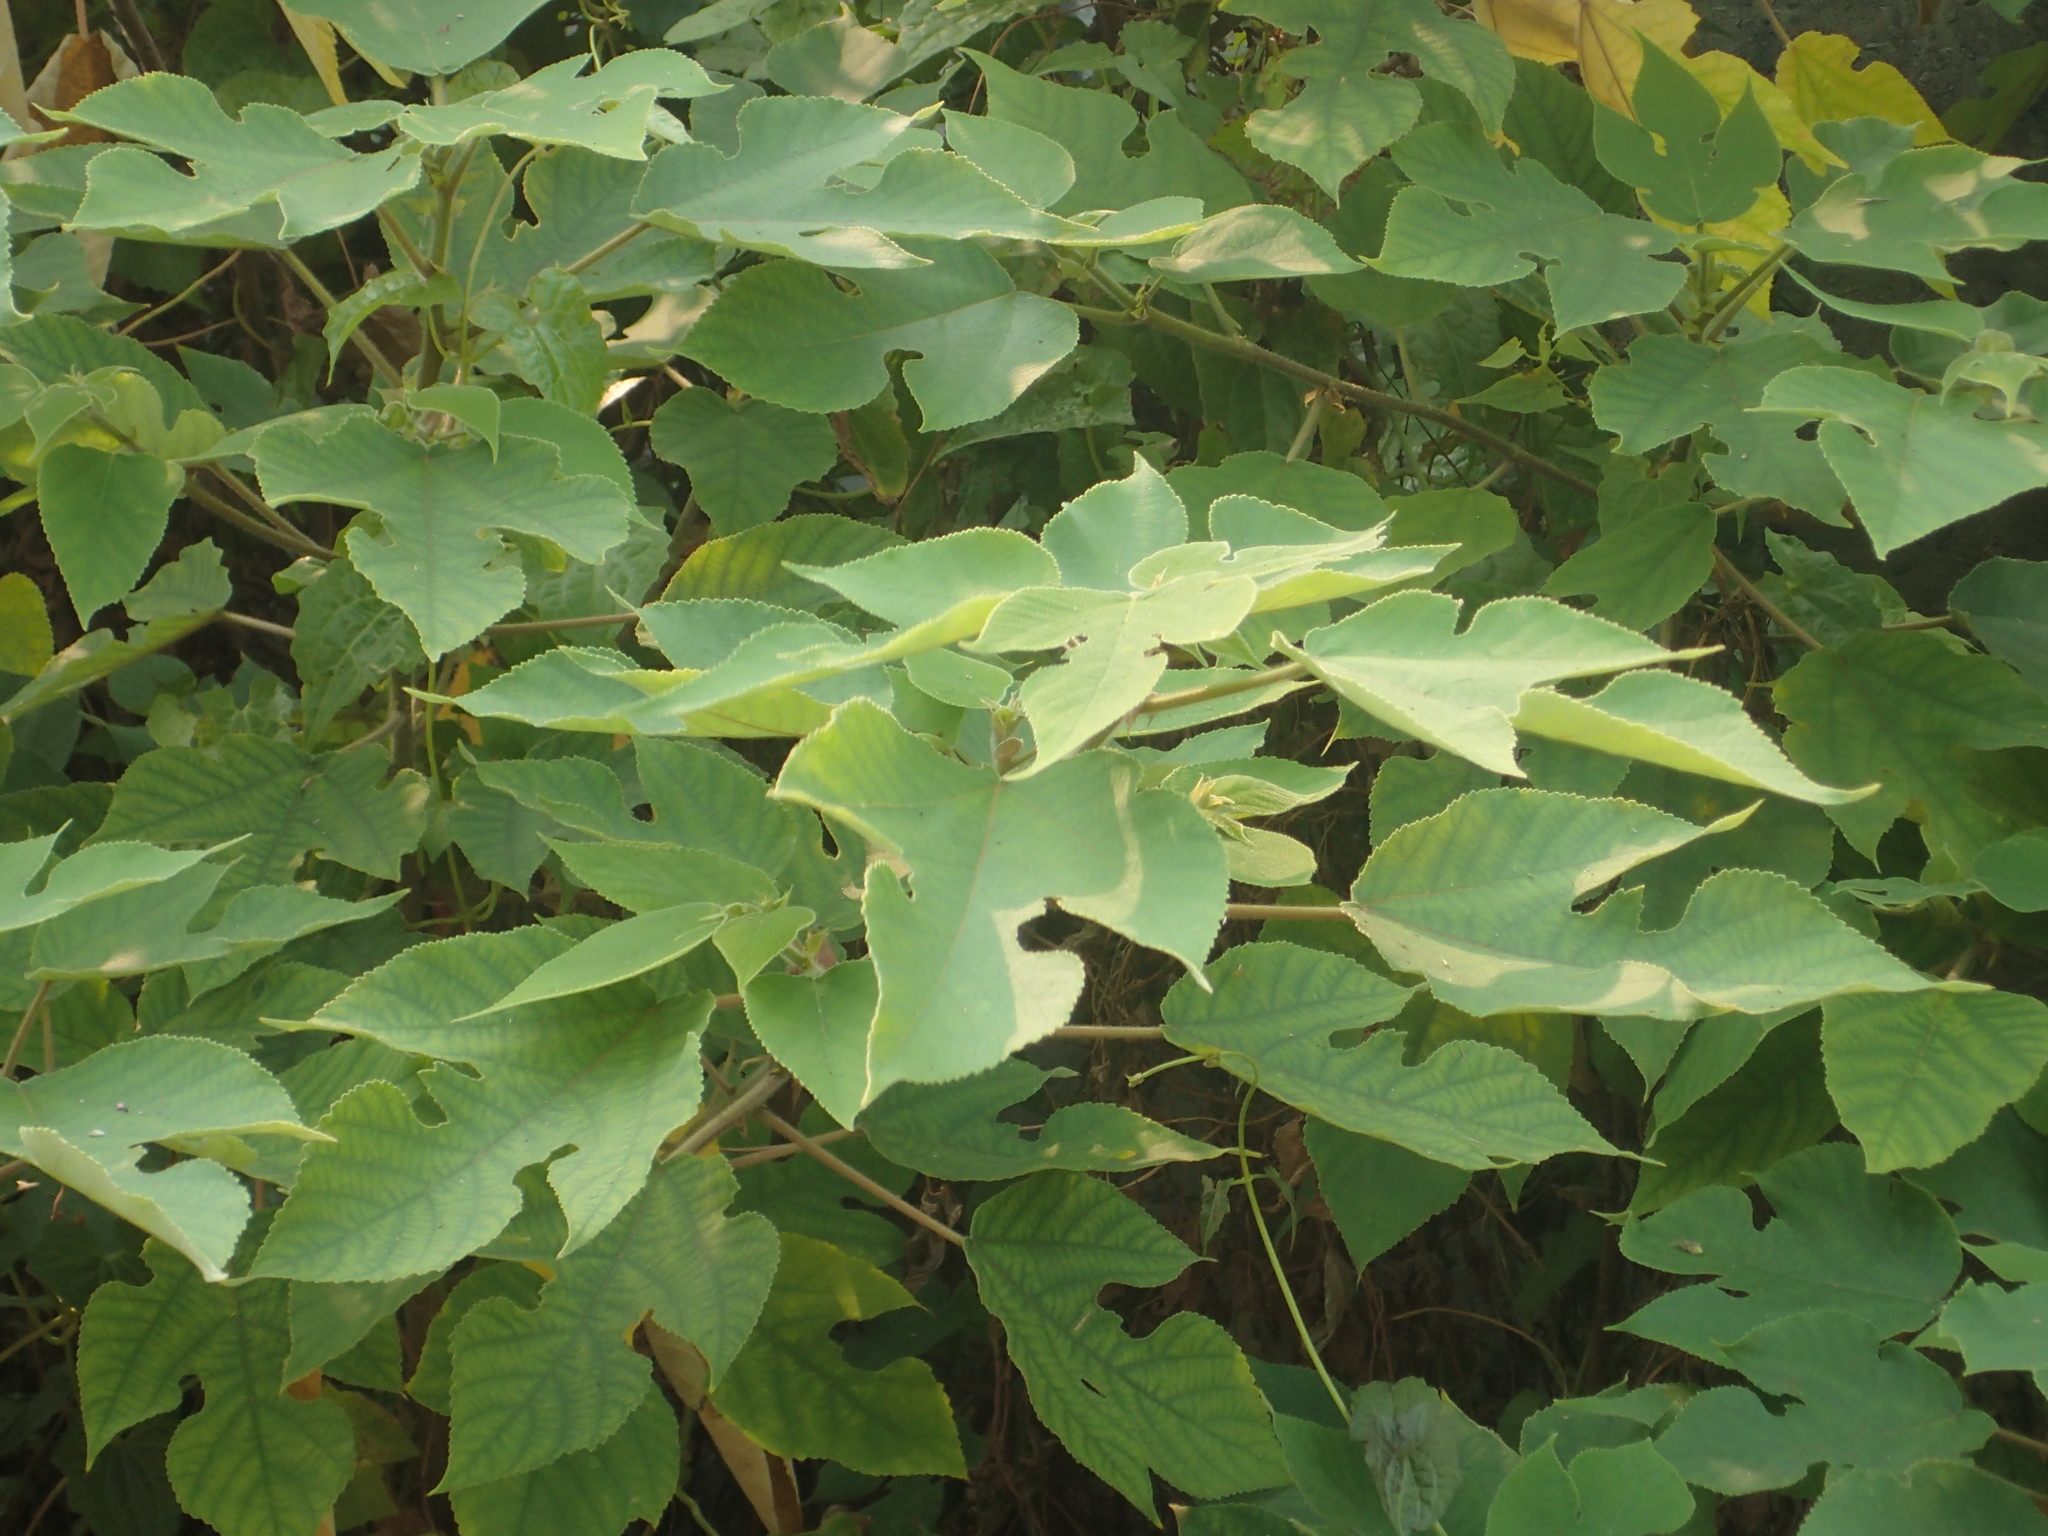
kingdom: Plantae
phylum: Tracheophyta
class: Magnoliopsida
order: Rosales
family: Moraceae
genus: Broussonetia
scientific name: Broussonetia papyrifera
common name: Paper mulberry
